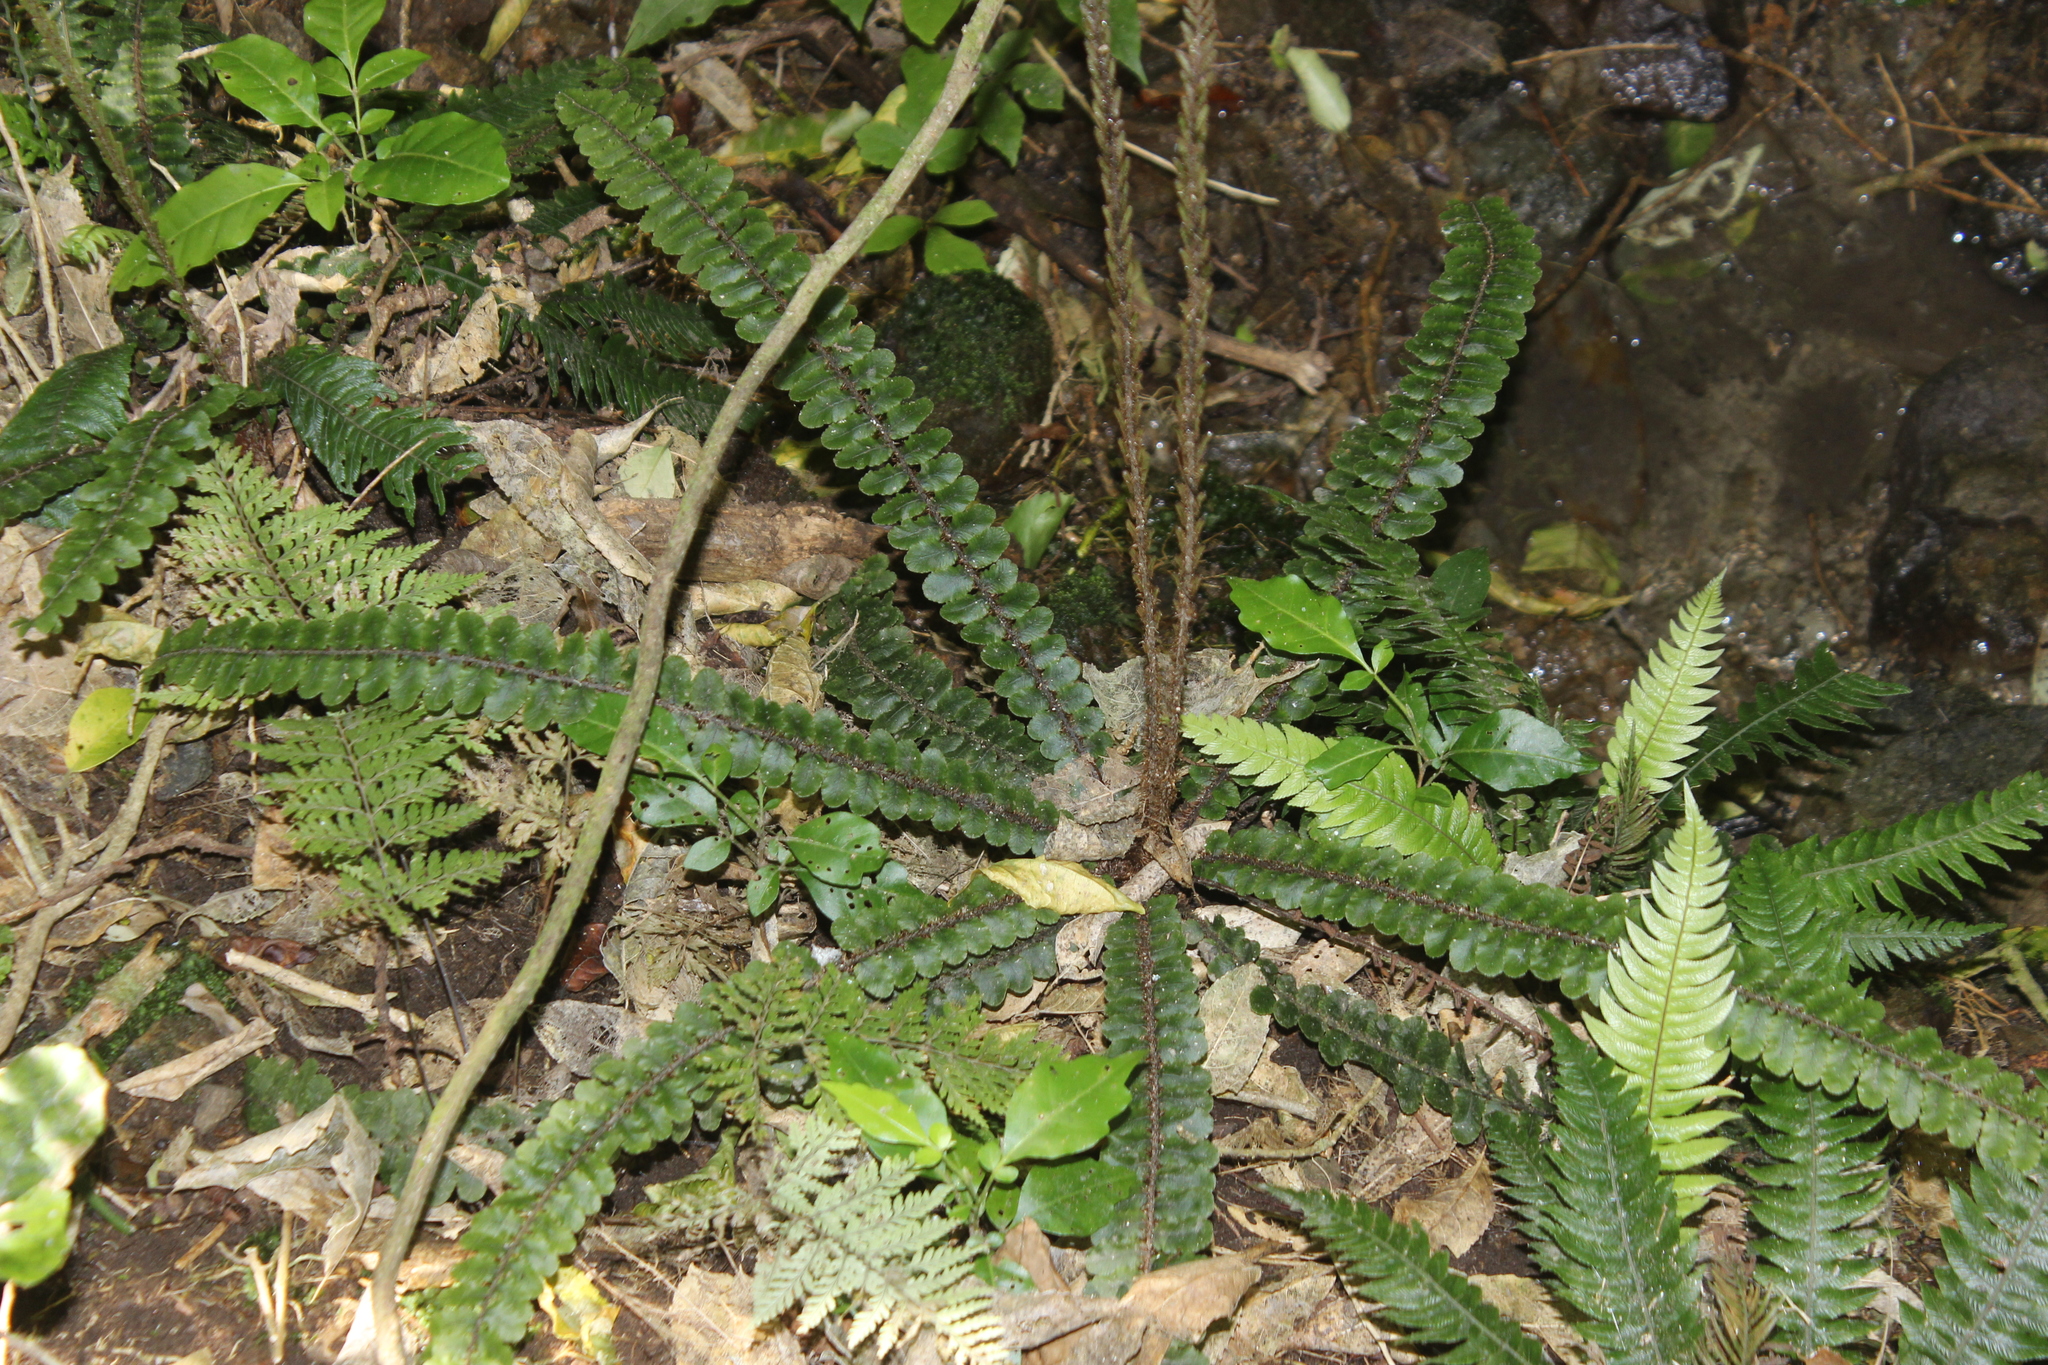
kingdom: Plantae
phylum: Tracheophyta
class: Polypodiopsida
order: Polypodiales
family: Blechnaceae
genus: Cranfillia
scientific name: Cranfillia fluviatilis
